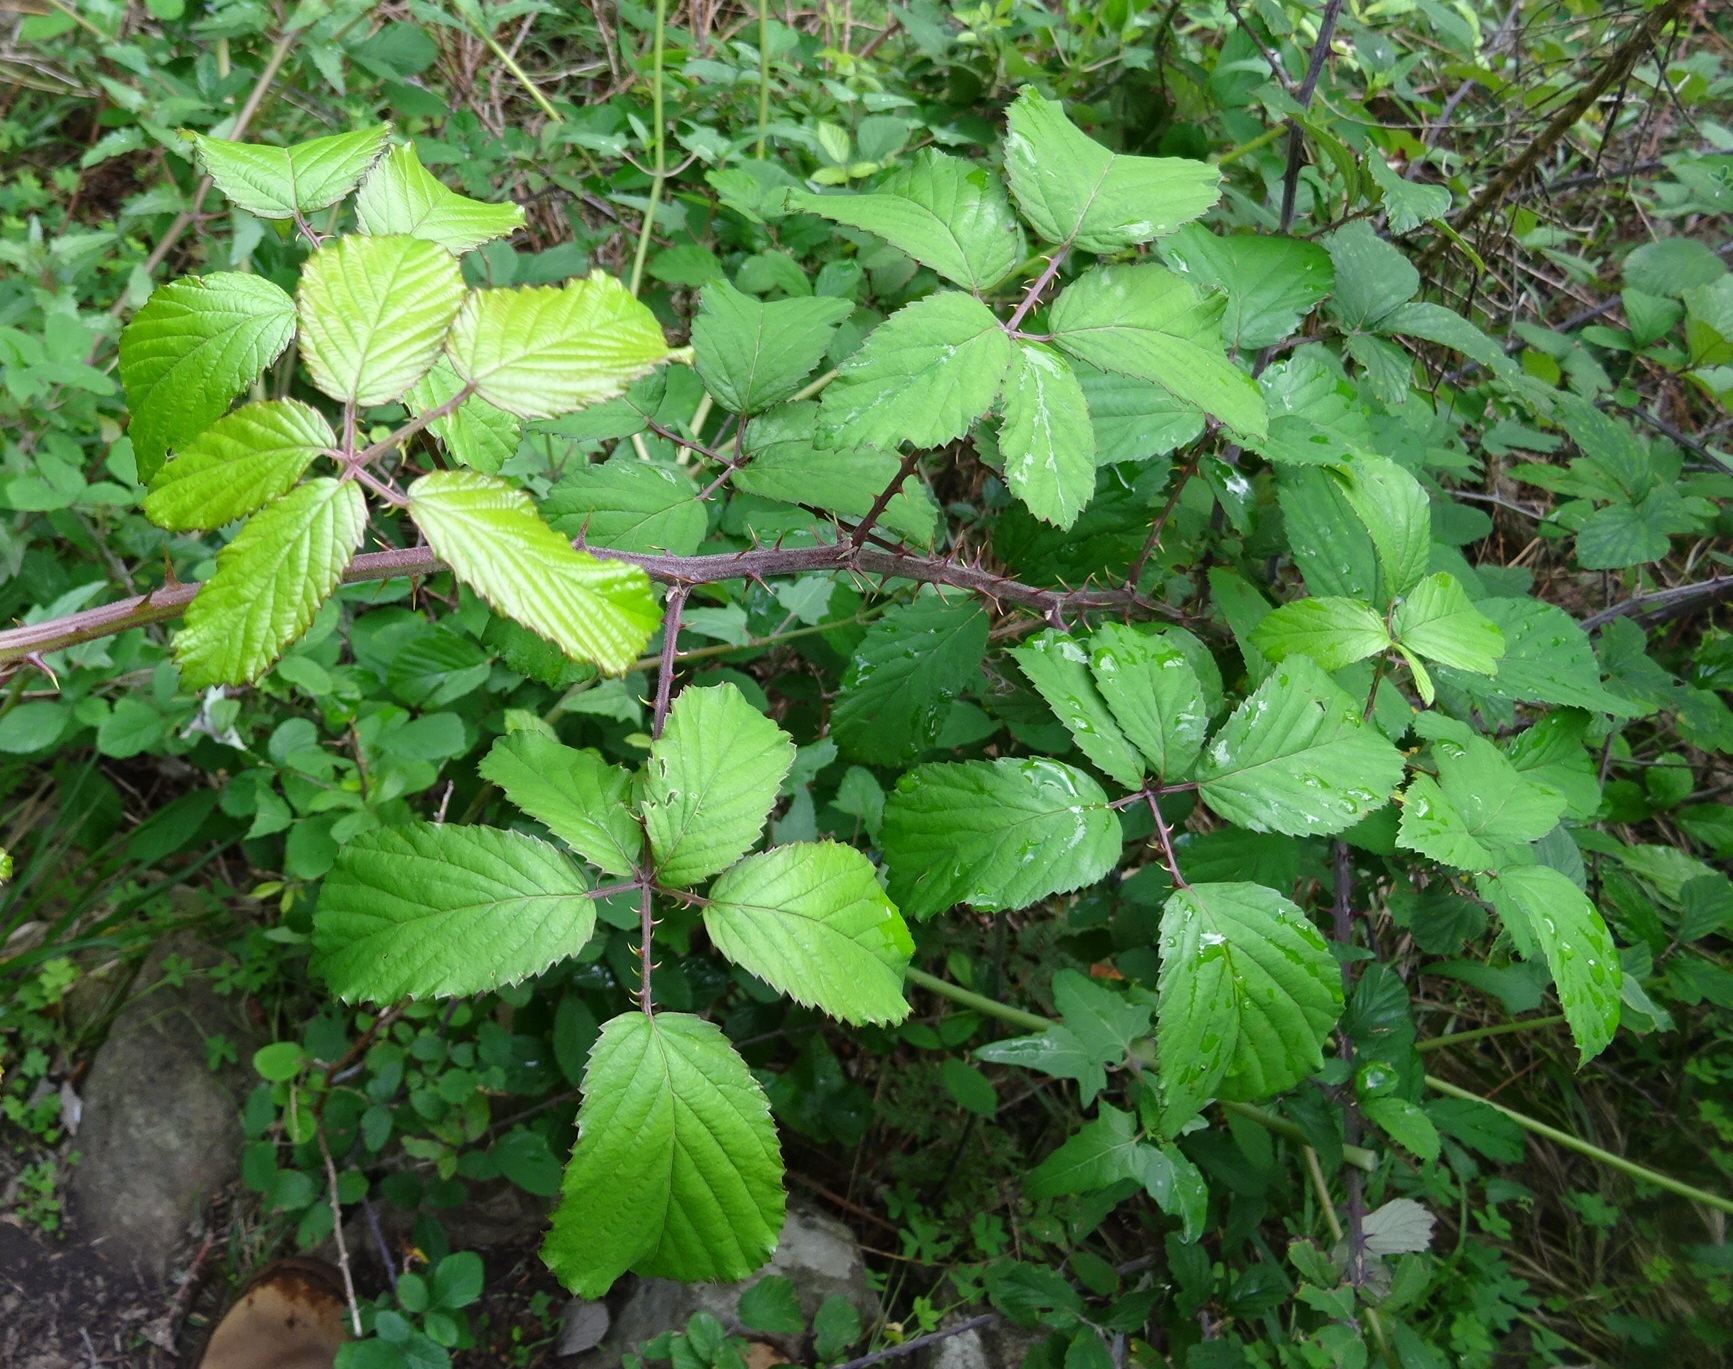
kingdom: Plantae
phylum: Tracheophyta
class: Magnoliopsida
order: Rosales
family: Rosaceae
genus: Rubus
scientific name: Rubus ulmifolius
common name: Elmleaf blackberry
